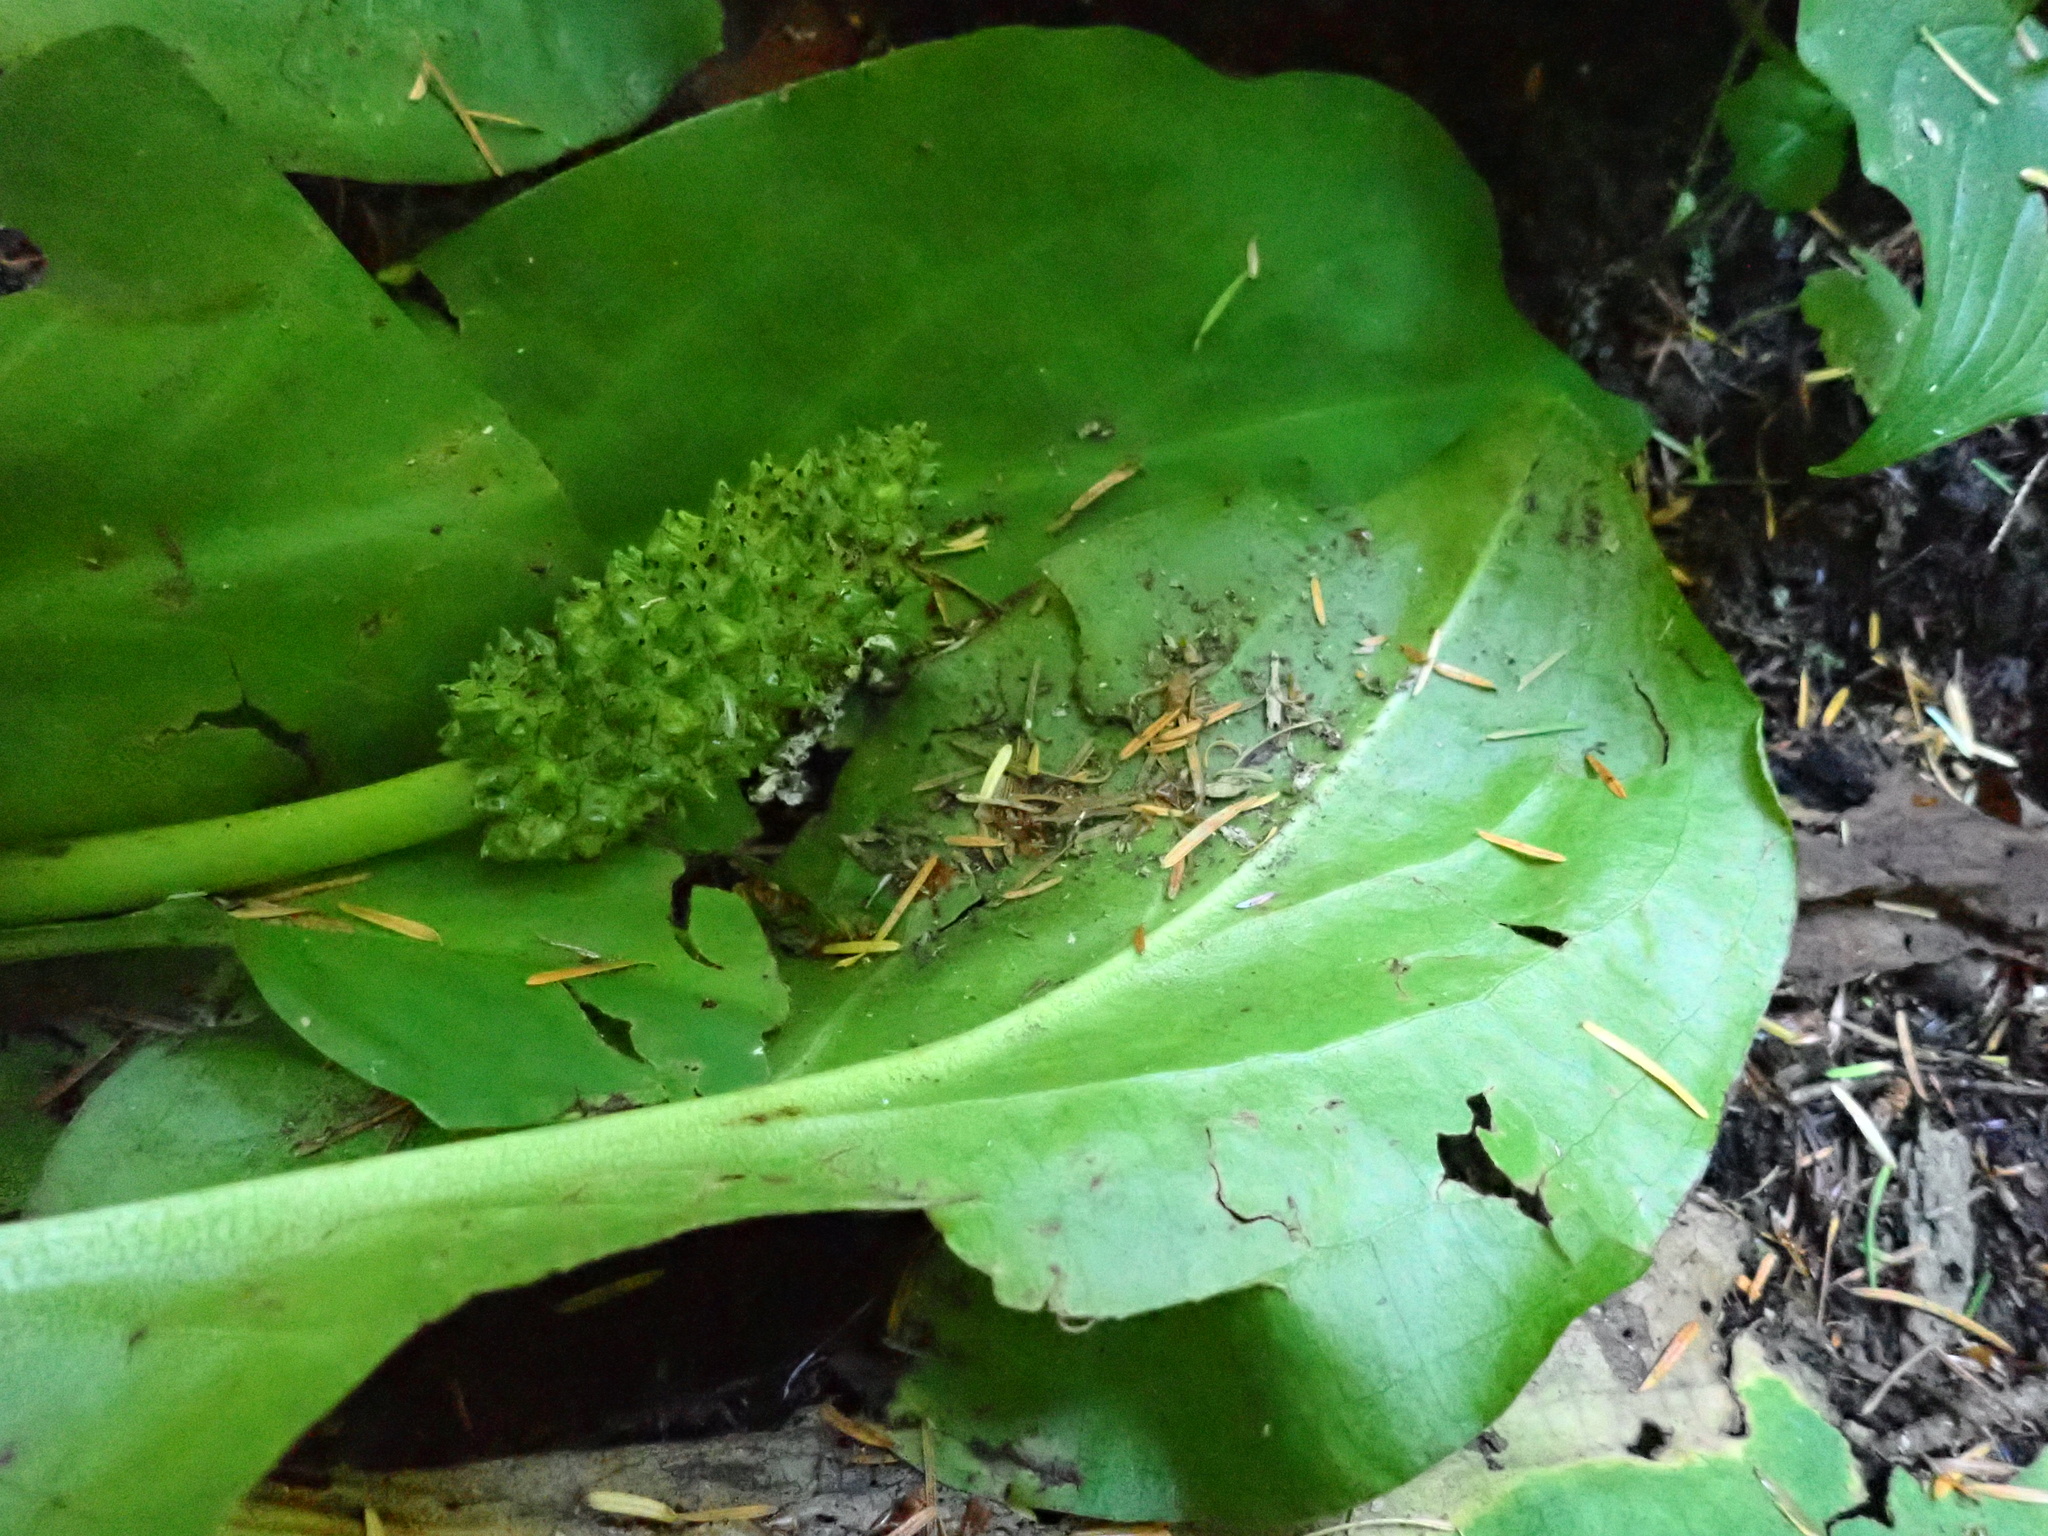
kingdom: Plantae
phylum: Tracheophyta
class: Liliopsida
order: Alismatales
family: Araceae
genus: Lysichiton
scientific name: Lysichiton americanus
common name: American skunk cabbage
